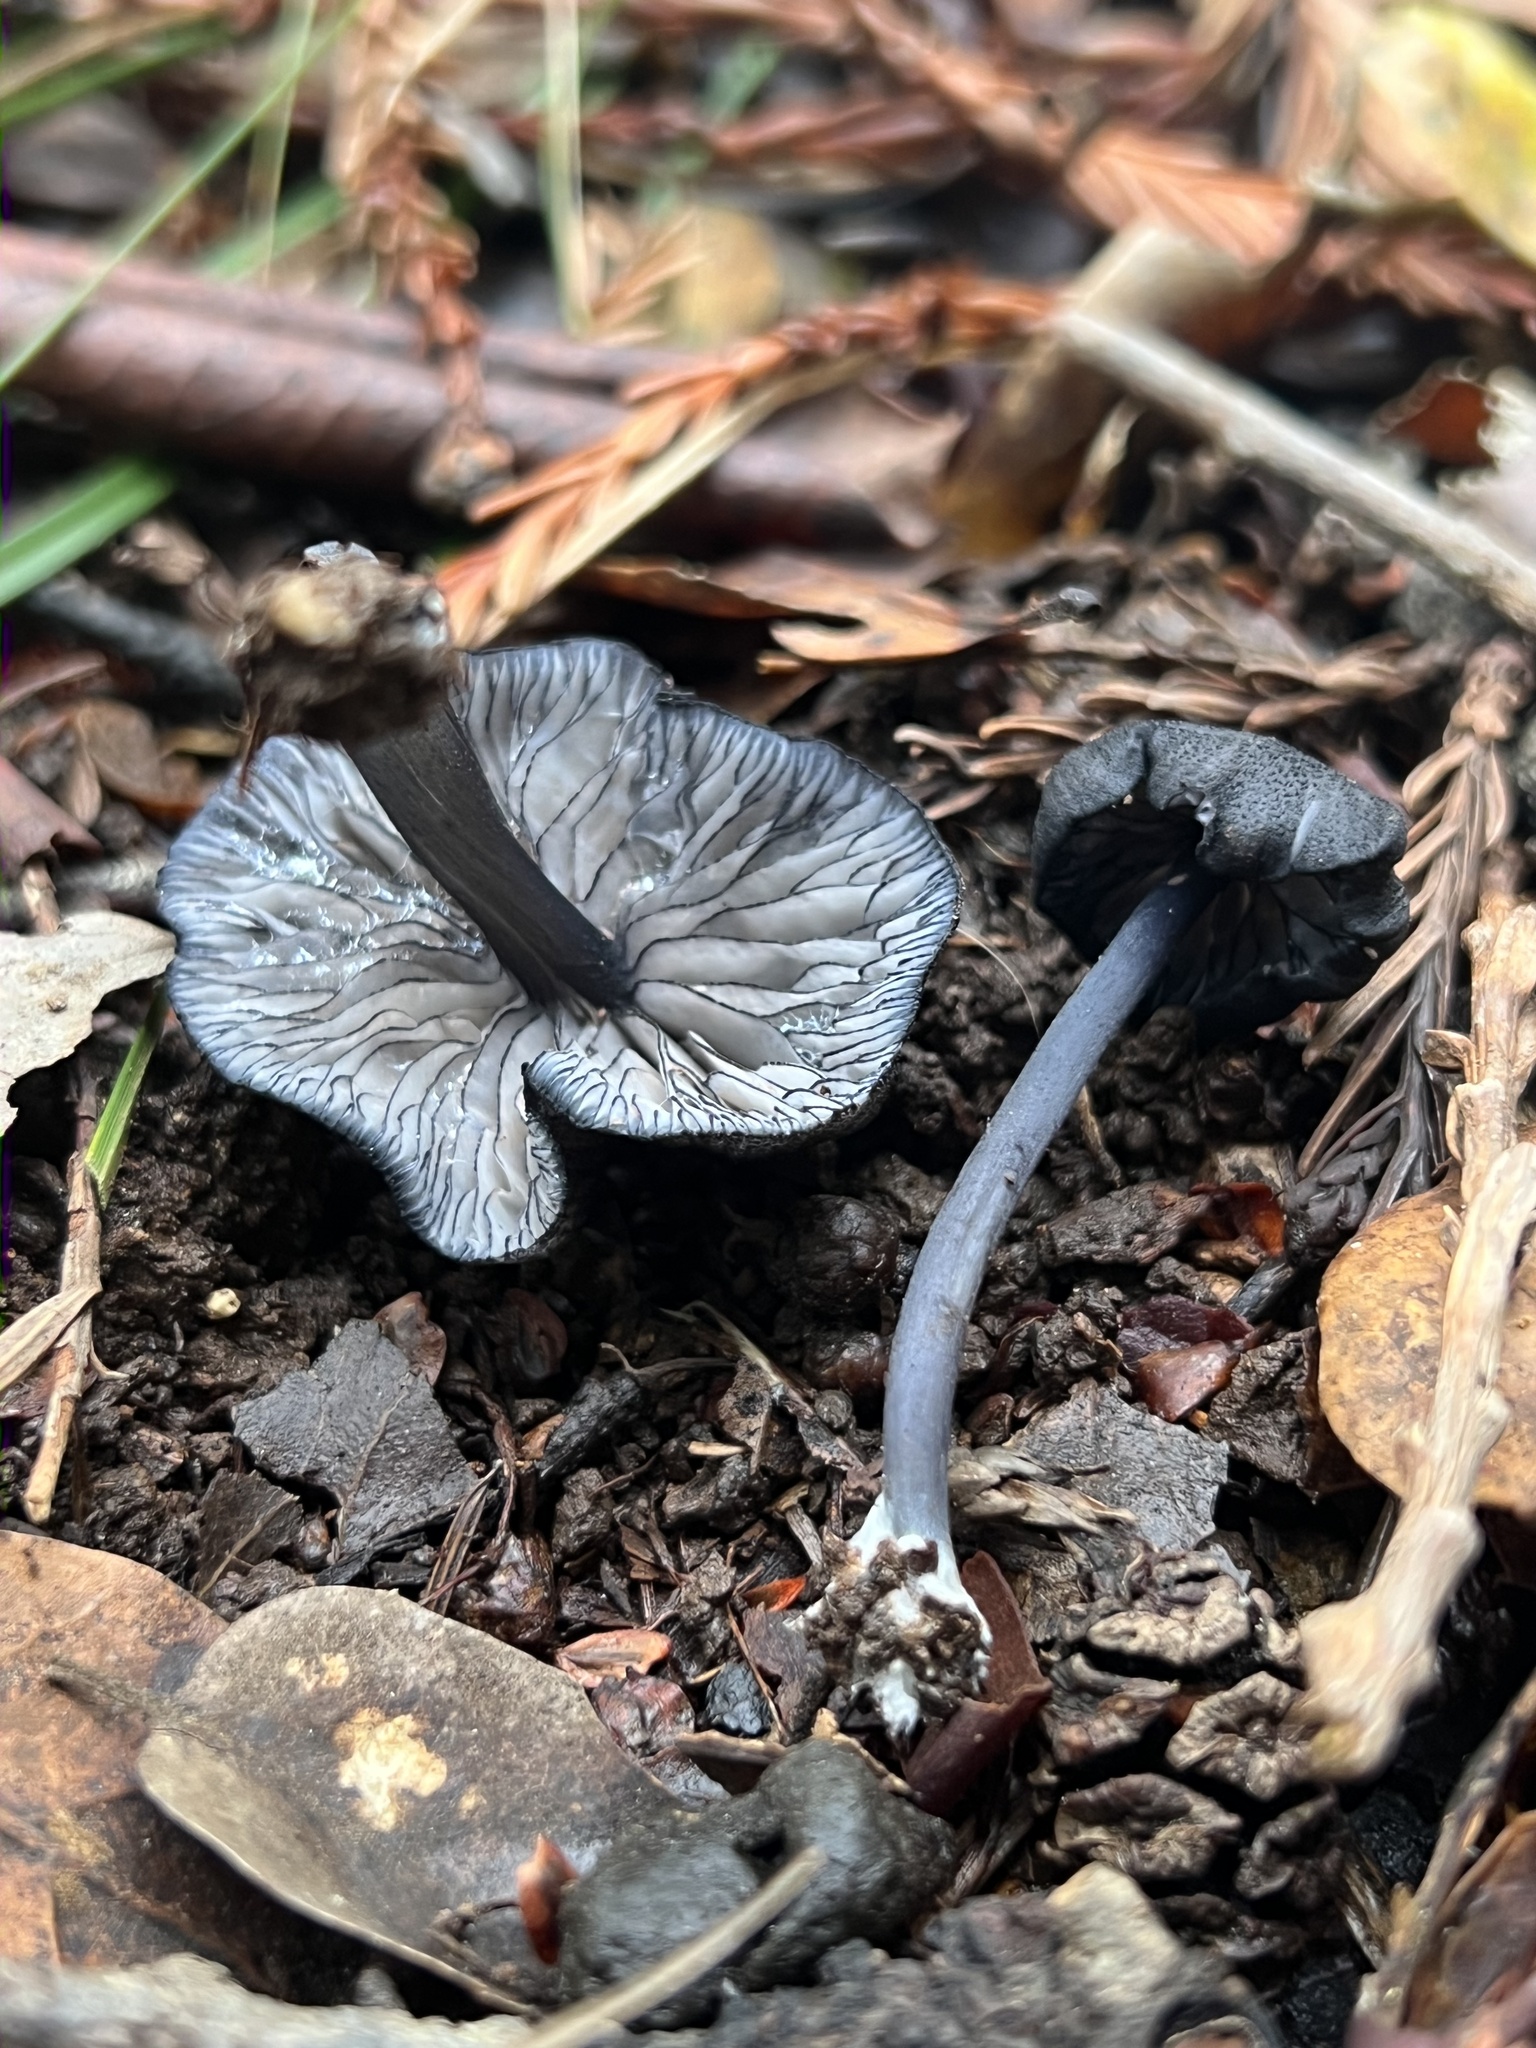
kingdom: Fungi
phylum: Basidiomycota
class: Agaricomycetes
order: Agaricales
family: Entolomataceae
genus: Entoloma
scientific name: Entoloma serrulatum
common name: Blue edge pinkgill
